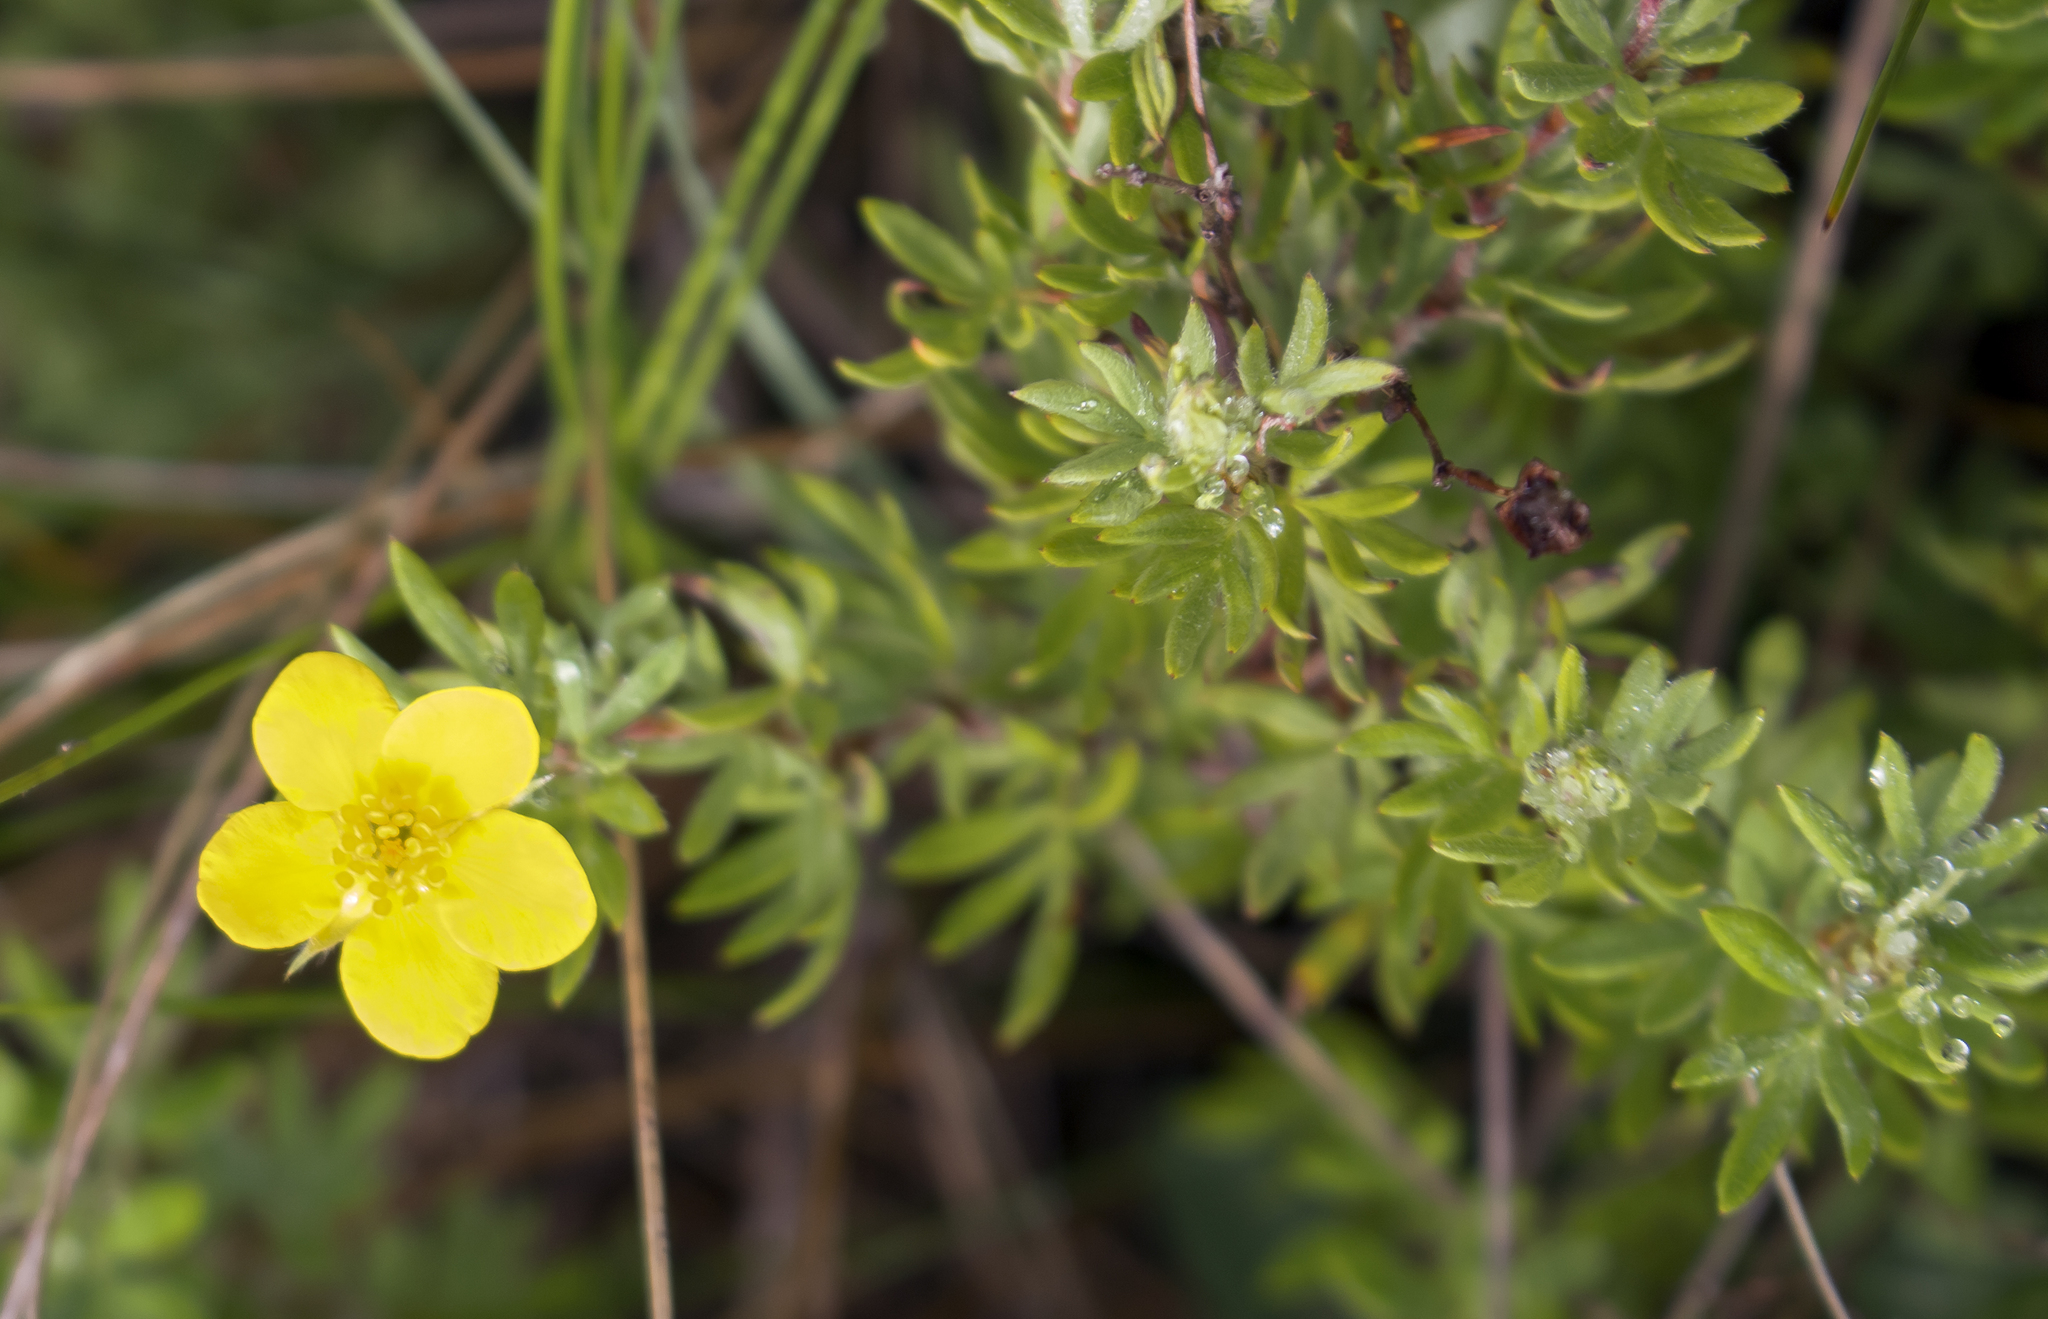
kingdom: Plantae
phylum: Tracheophyta
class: Magnoliopsida
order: Rosales
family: Rosaceae
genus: Dasiphora
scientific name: Dasiphora fruticosa
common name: Shrubby cinquefoil
